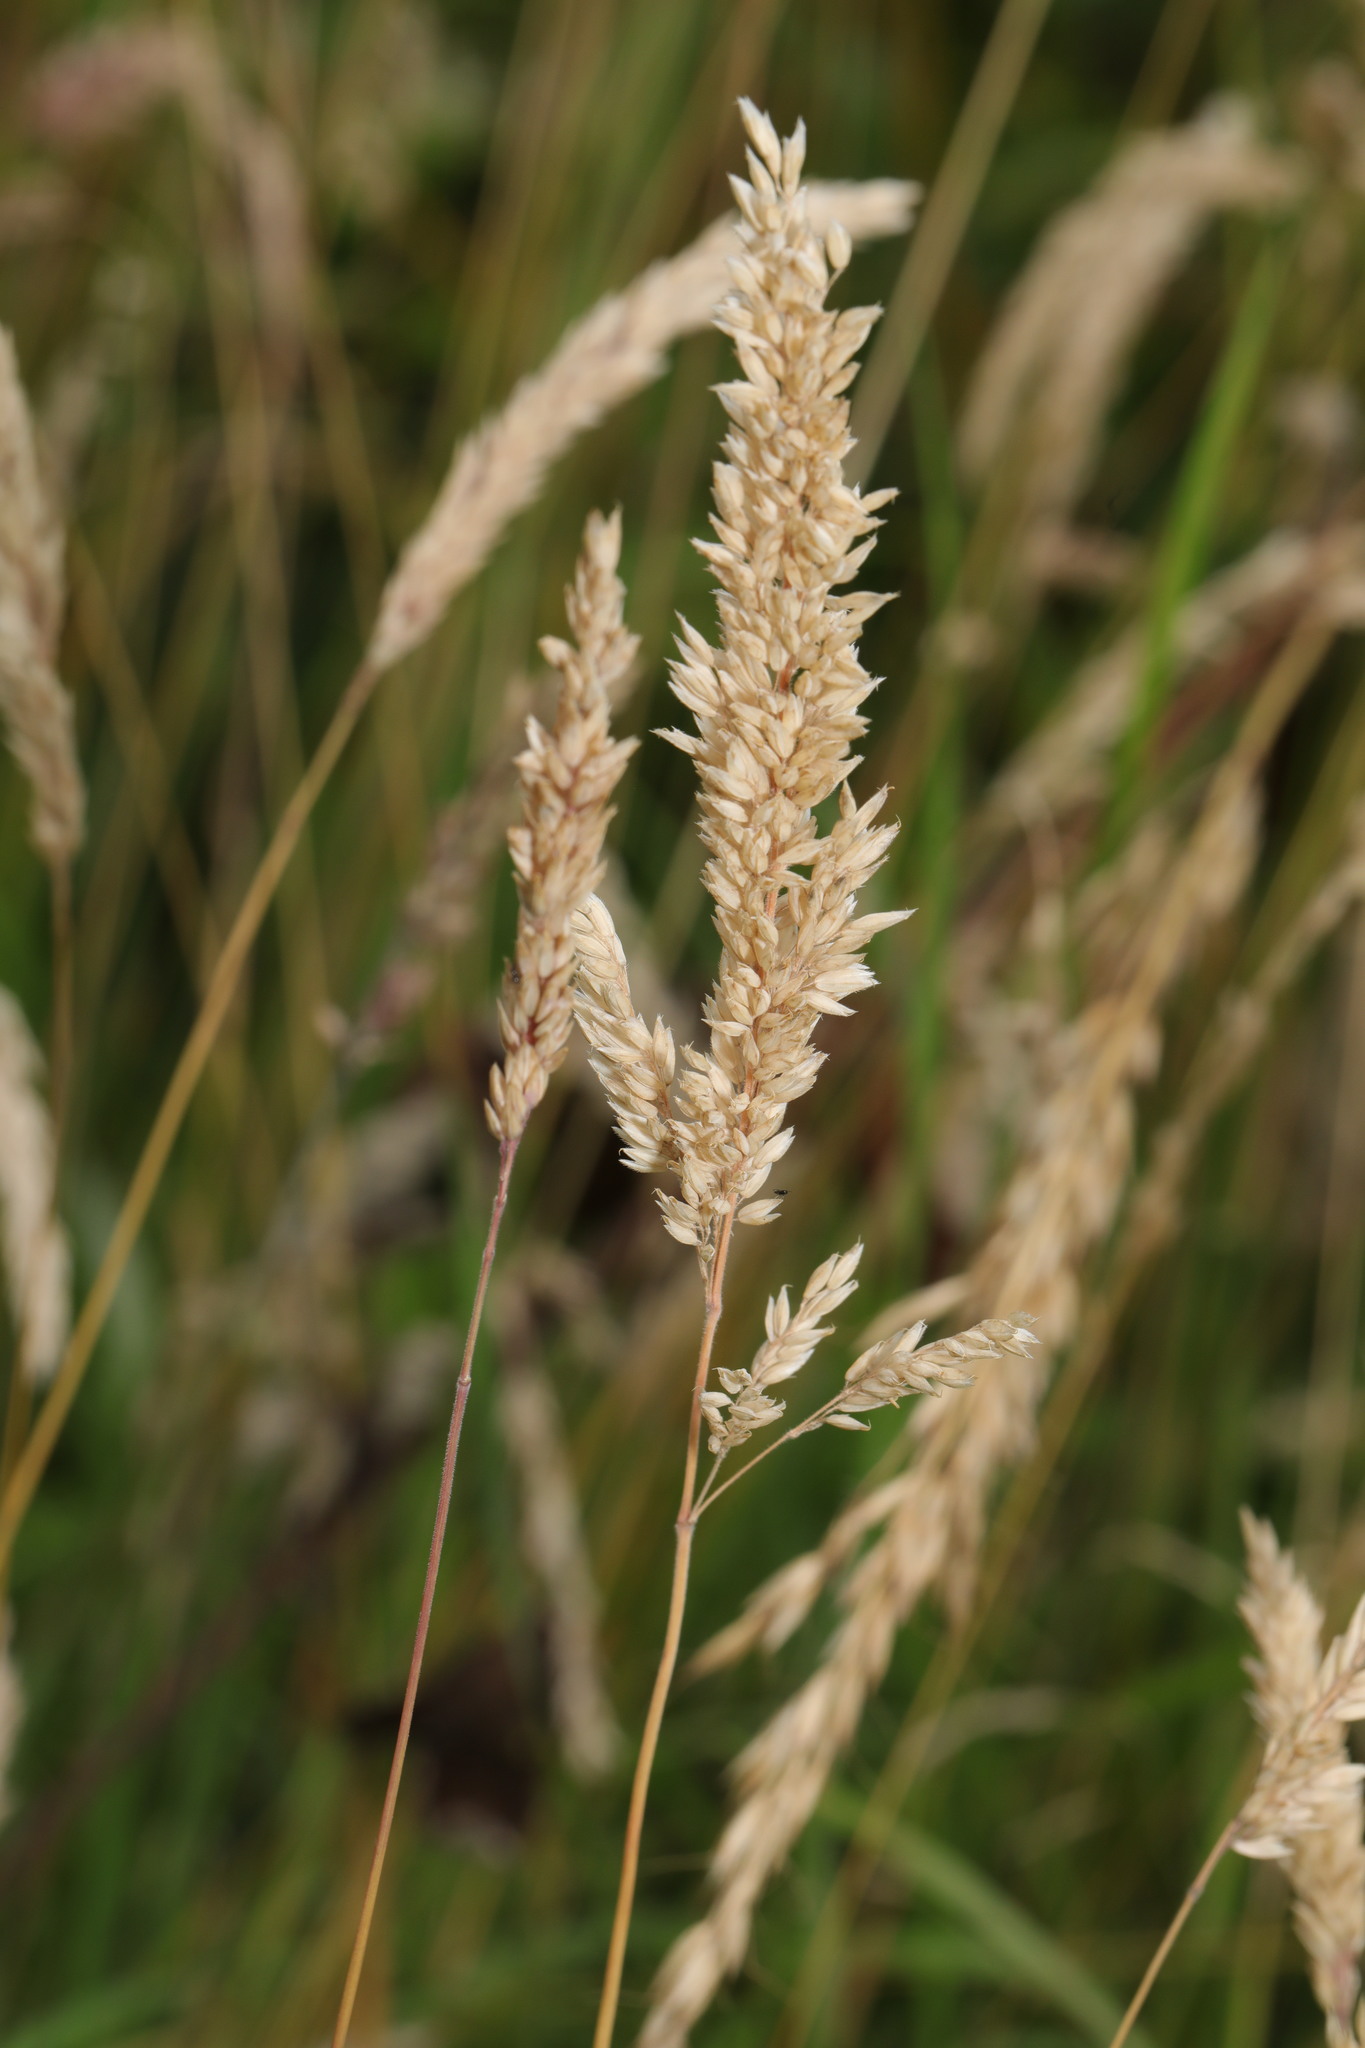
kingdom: Plantae
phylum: Tracheophyta
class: Liliopsida
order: Poales
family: Poaceae
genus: Holcus
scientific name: Holcus lanatus
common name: Yorkshire-fog
